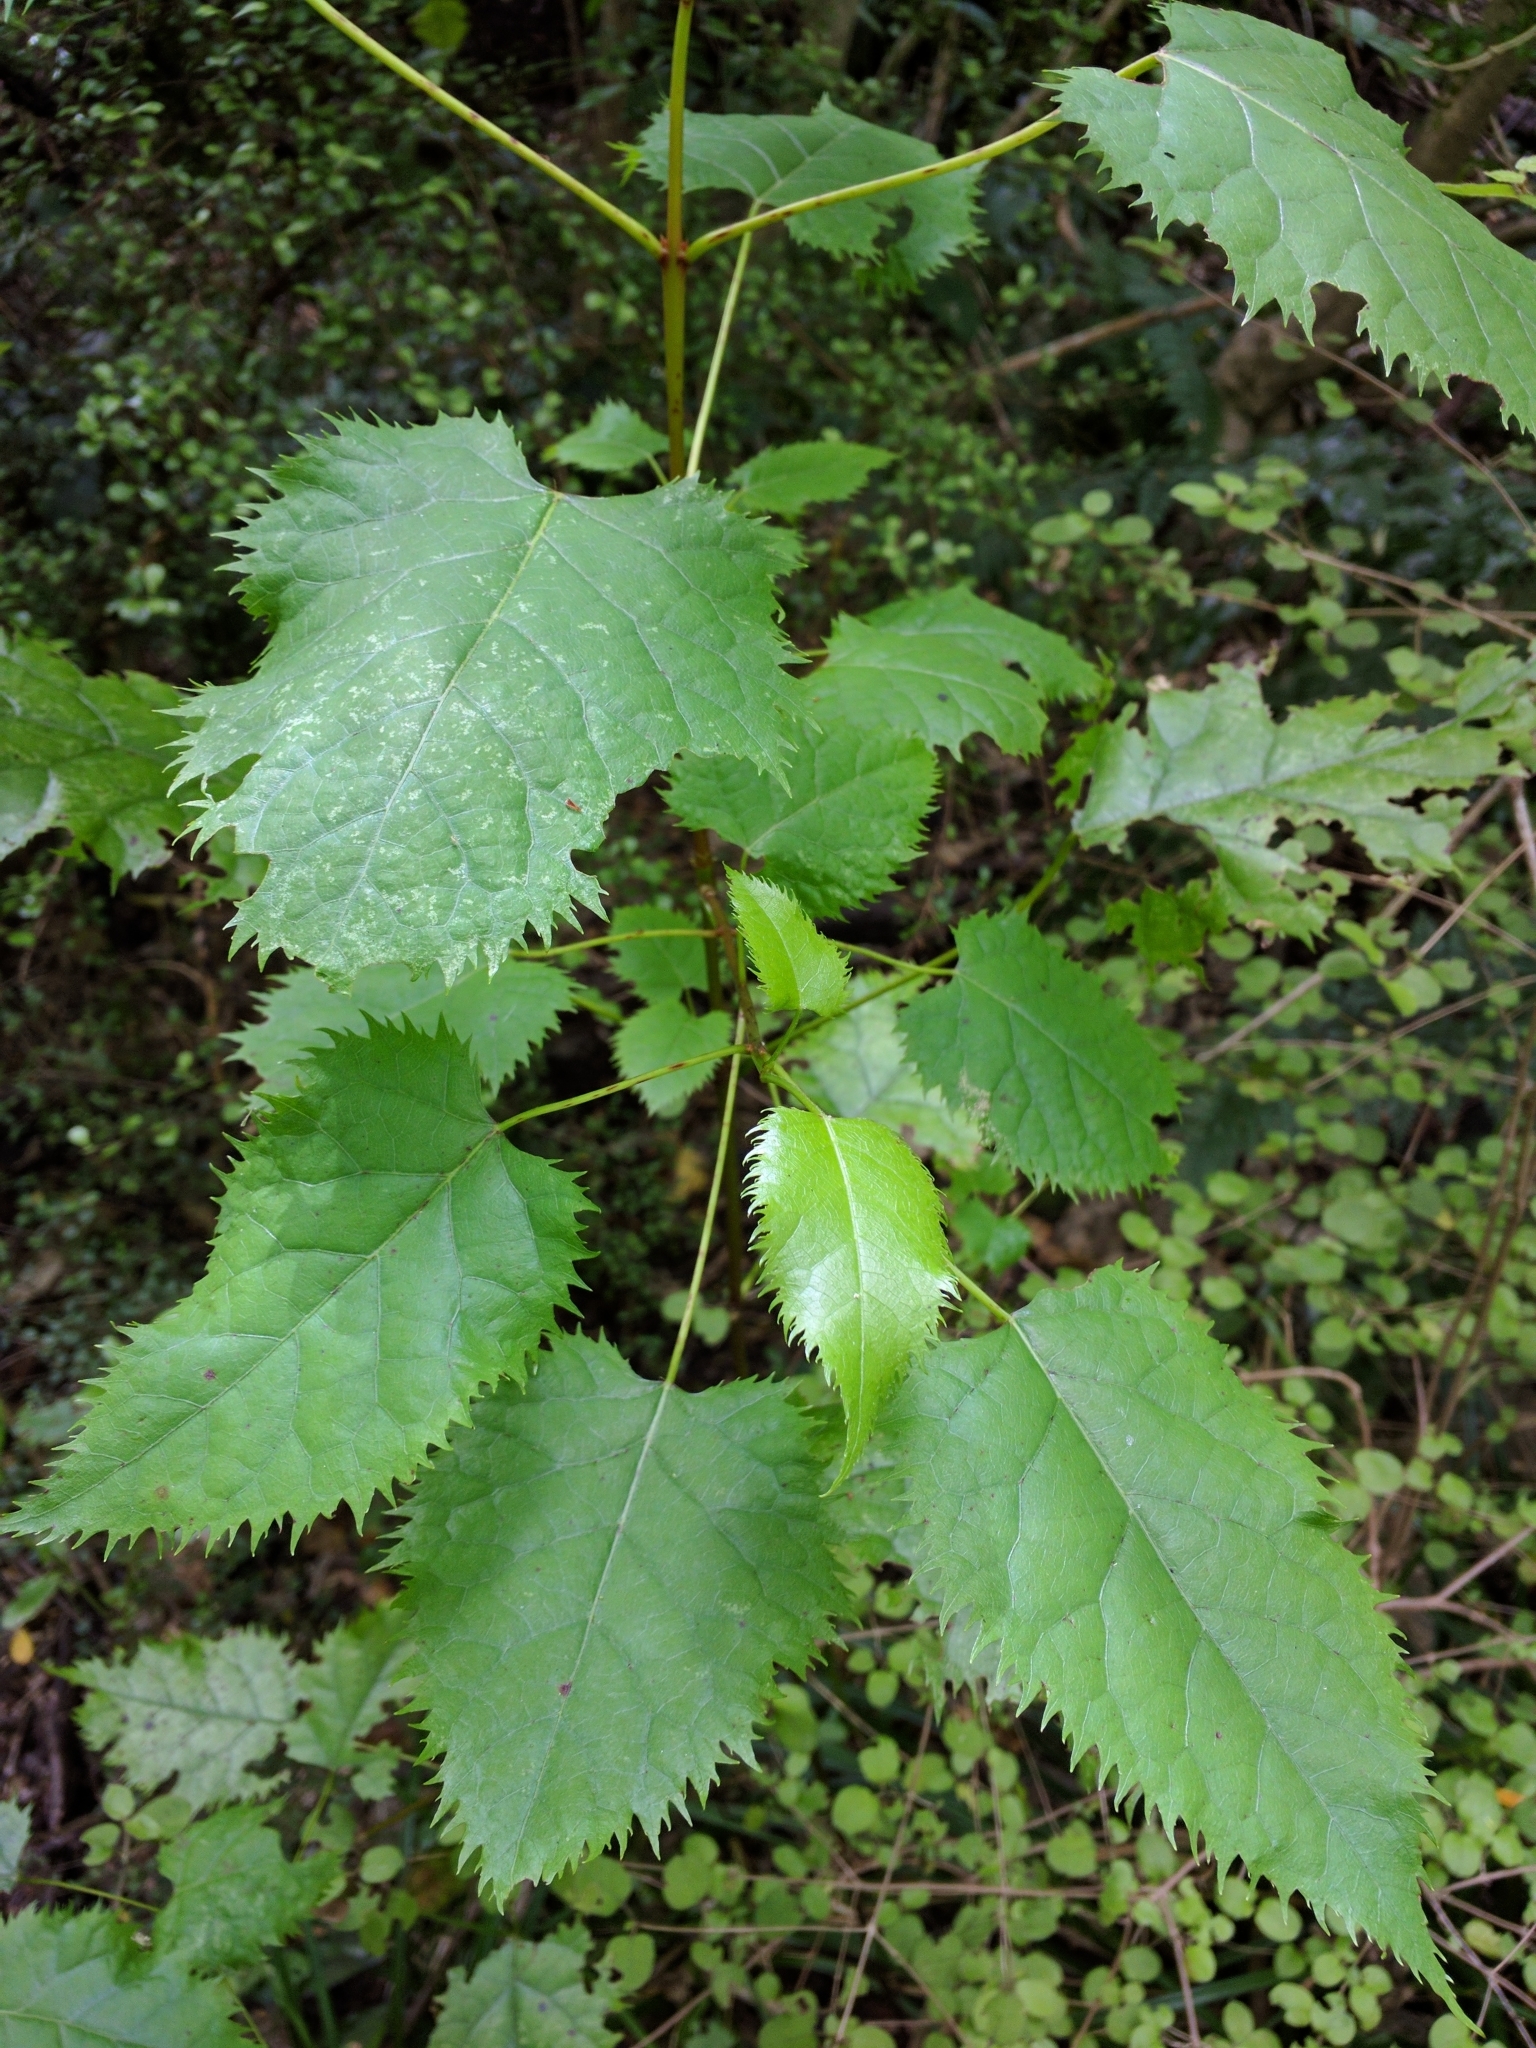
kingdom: Plantae
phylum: Tracheophyta
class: Magnoliopsida
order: Oxalidales
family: Elaeocarpaceae
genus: Aristotelia
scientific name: Aristotelia serrata
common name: New zealand wineberry
